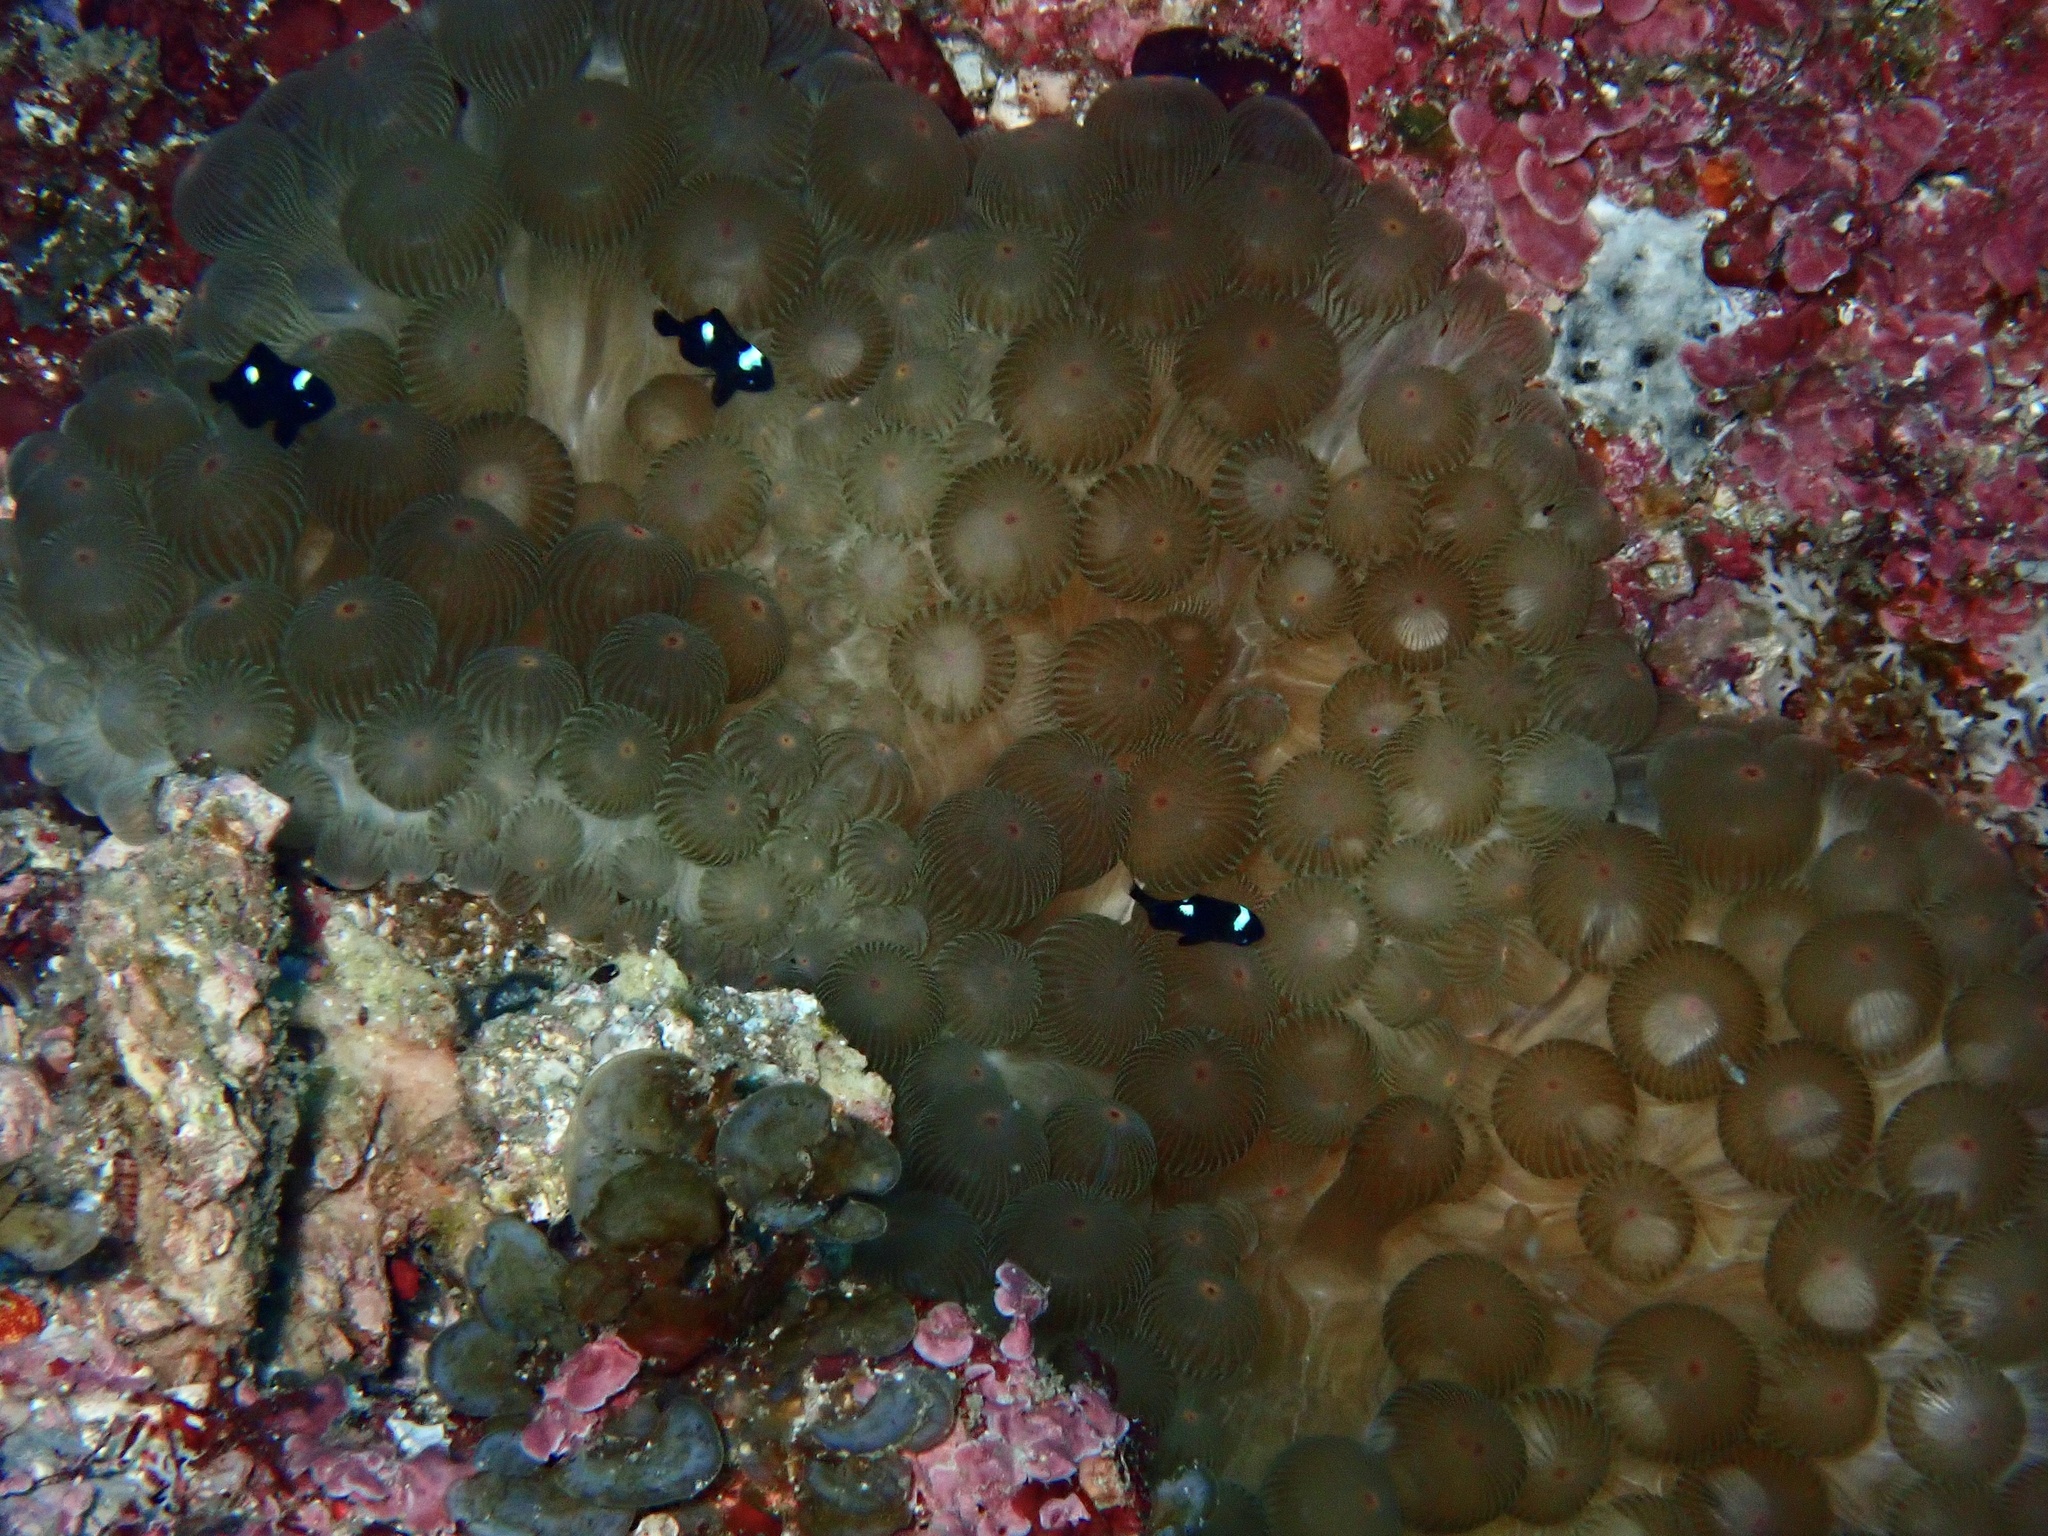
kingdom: Animalia
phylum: Cnidaria
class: Anthozoa
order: Actiniaria
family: Actiniidae
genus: Entacmaea
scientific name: Entacmaea quadricolor
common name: Bulb tentacle sea anemone
